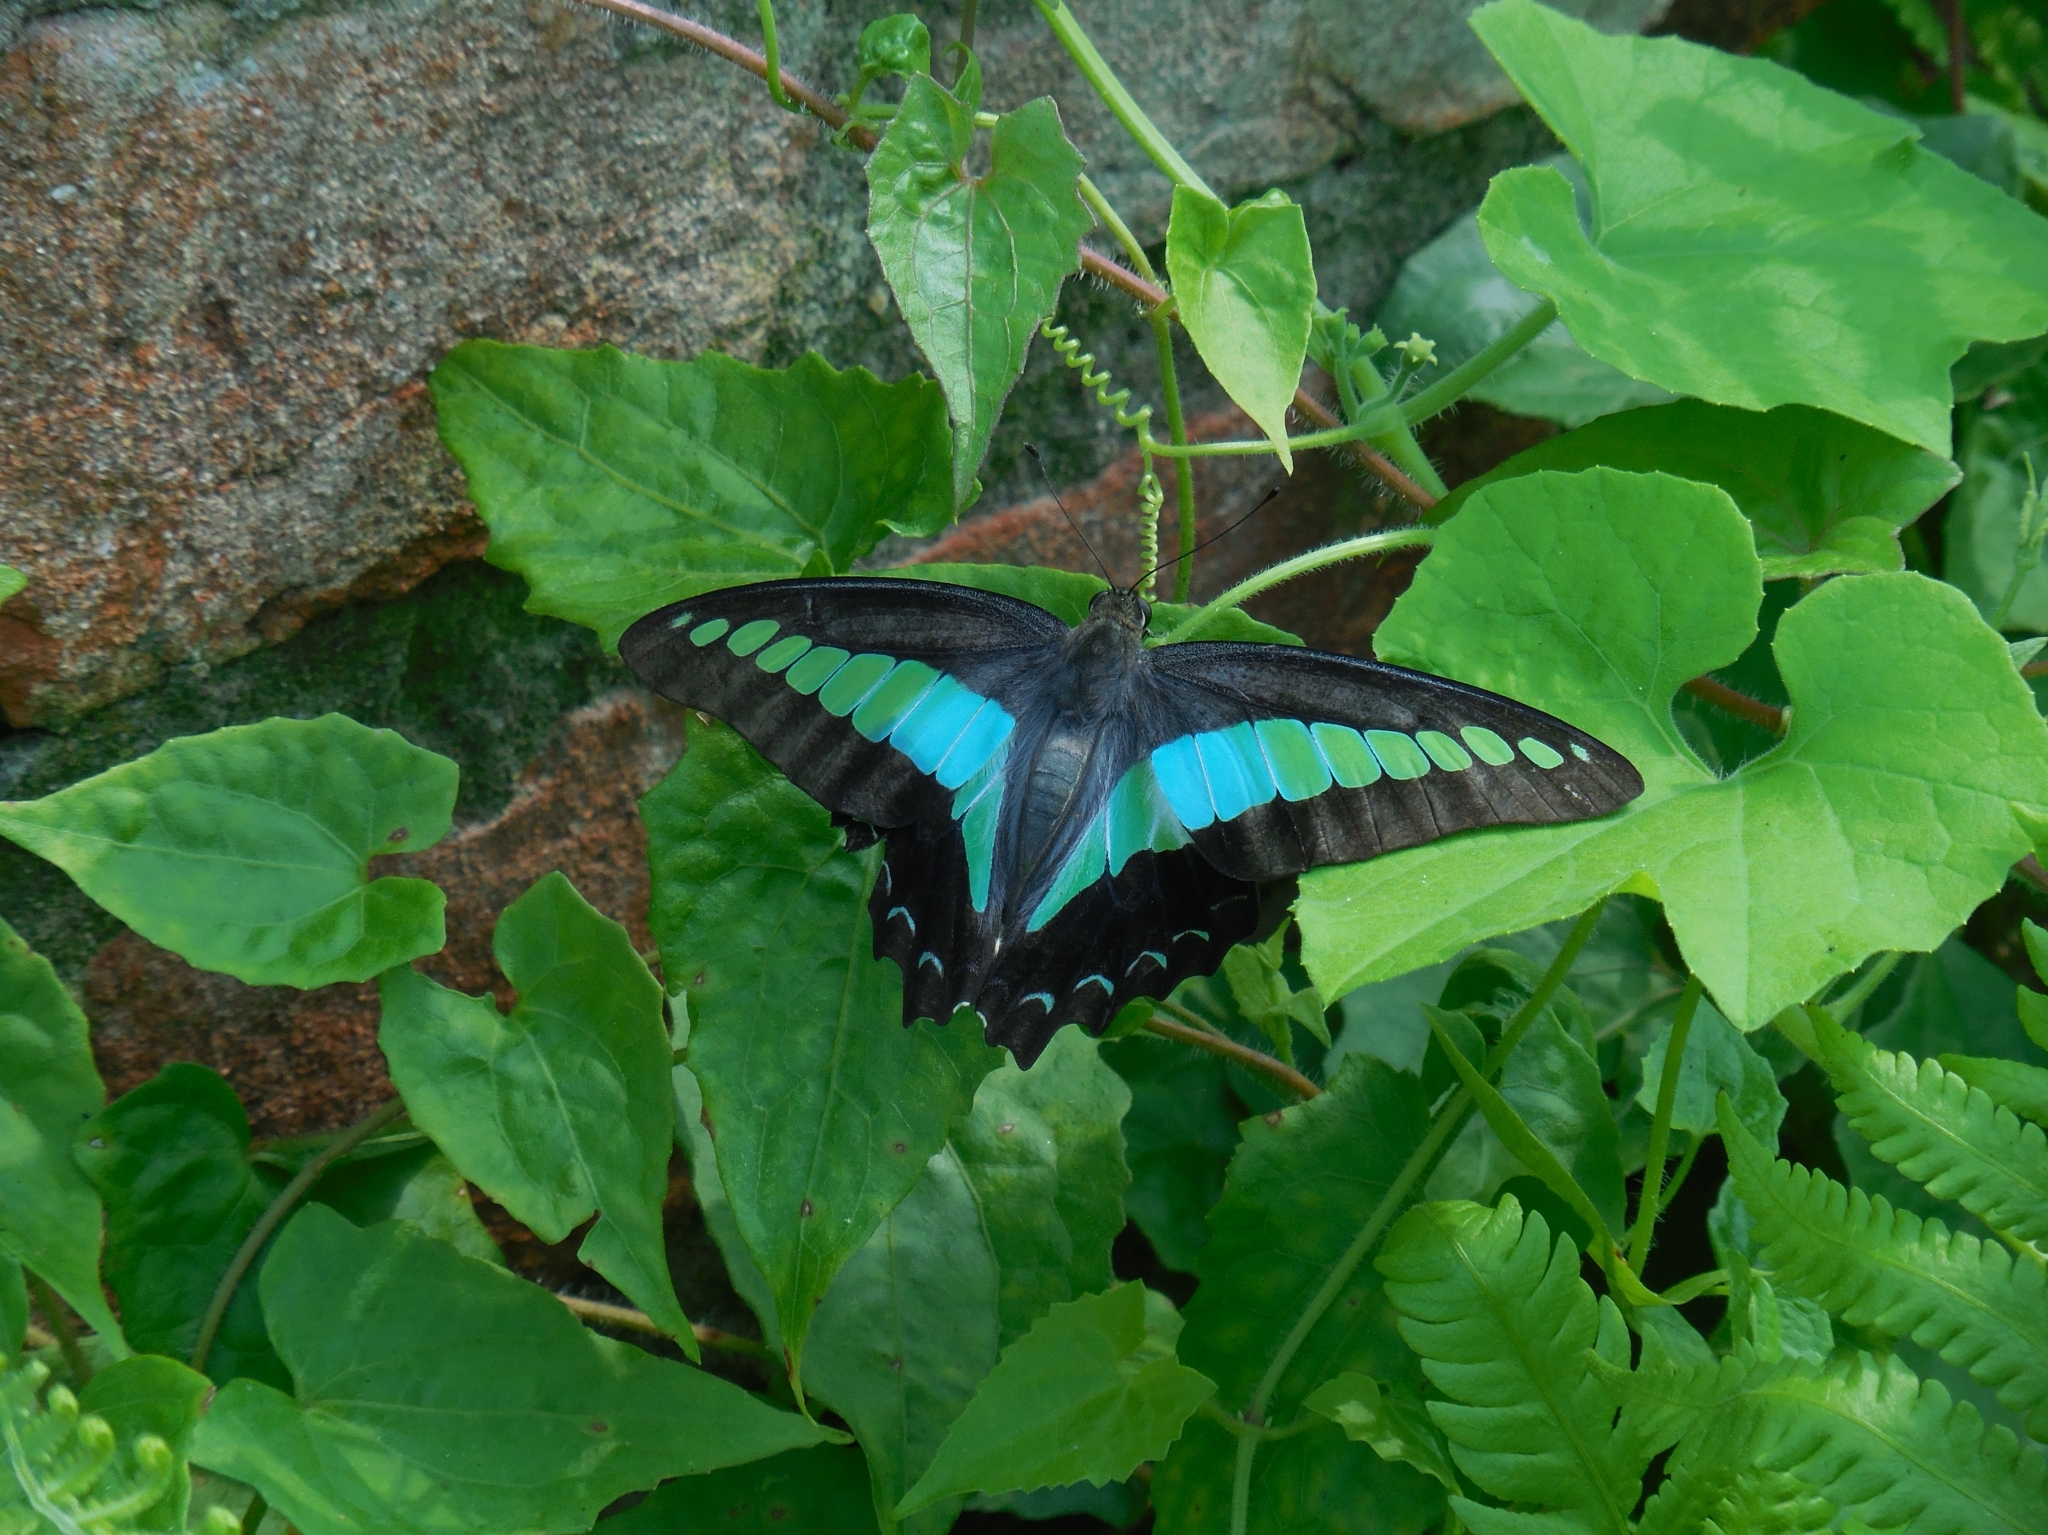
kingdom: Fungi
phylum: Ascomycota
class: Sordariomycetes
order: Microascales
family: Microascaceae
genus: Graphium
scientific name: Graphium sarpedon
